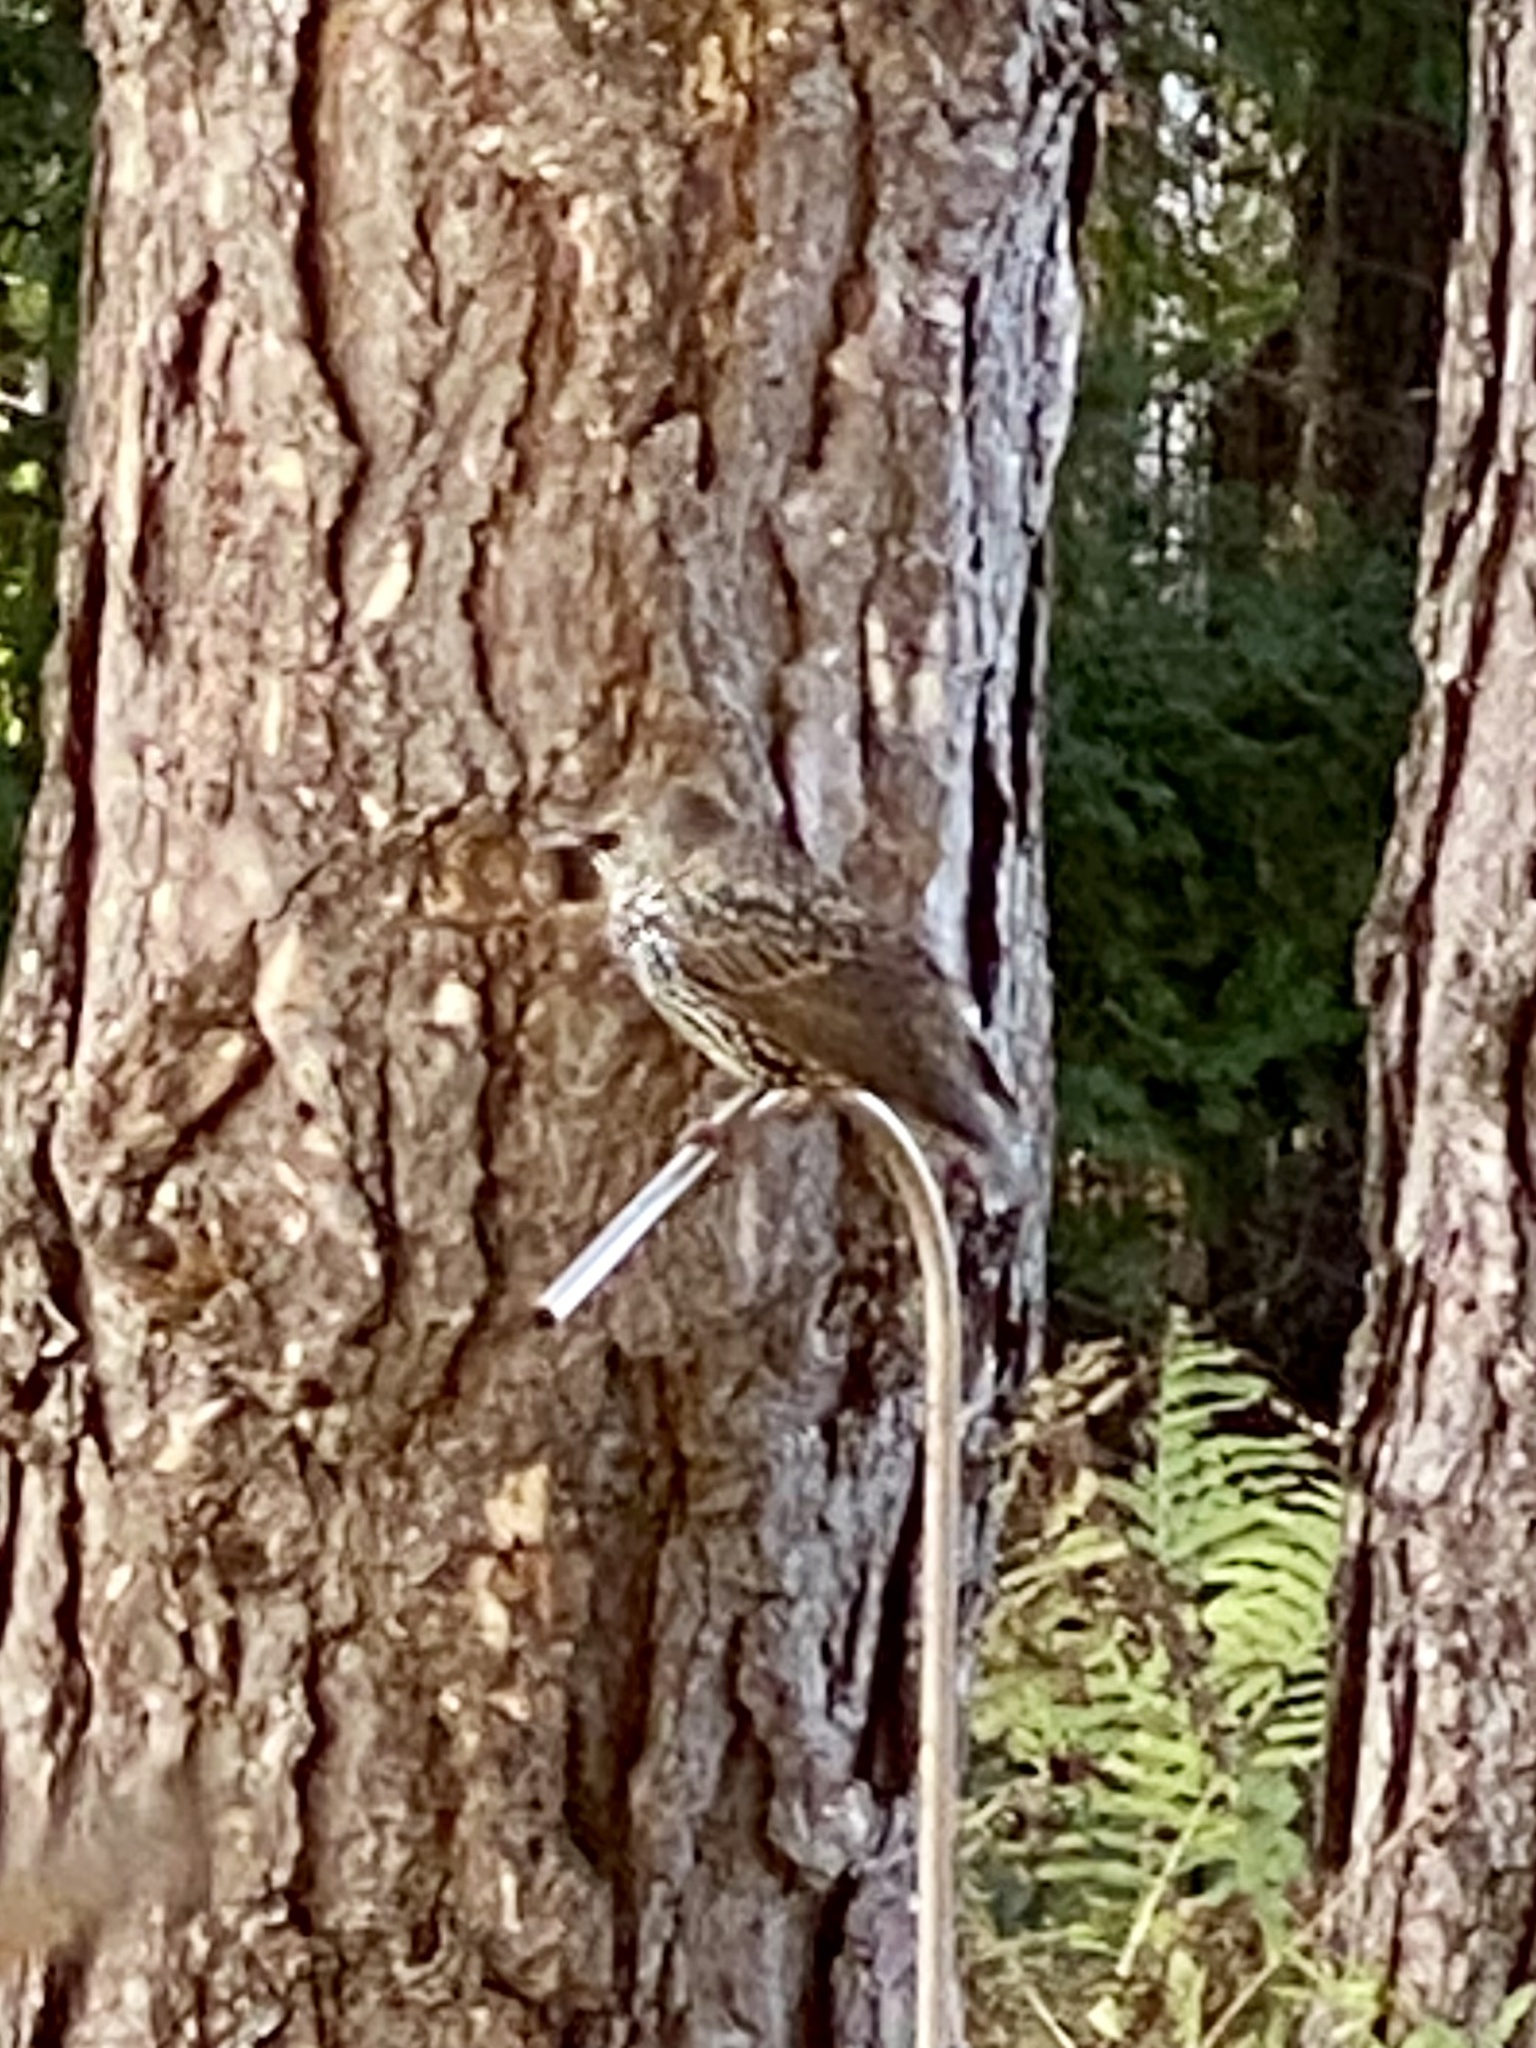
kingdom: Animalia
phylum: Chordata
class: Aves
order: Passeriformes
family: Sturnidae
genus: Sturnus
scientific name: Sturnus vulgaris
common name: Common starling
